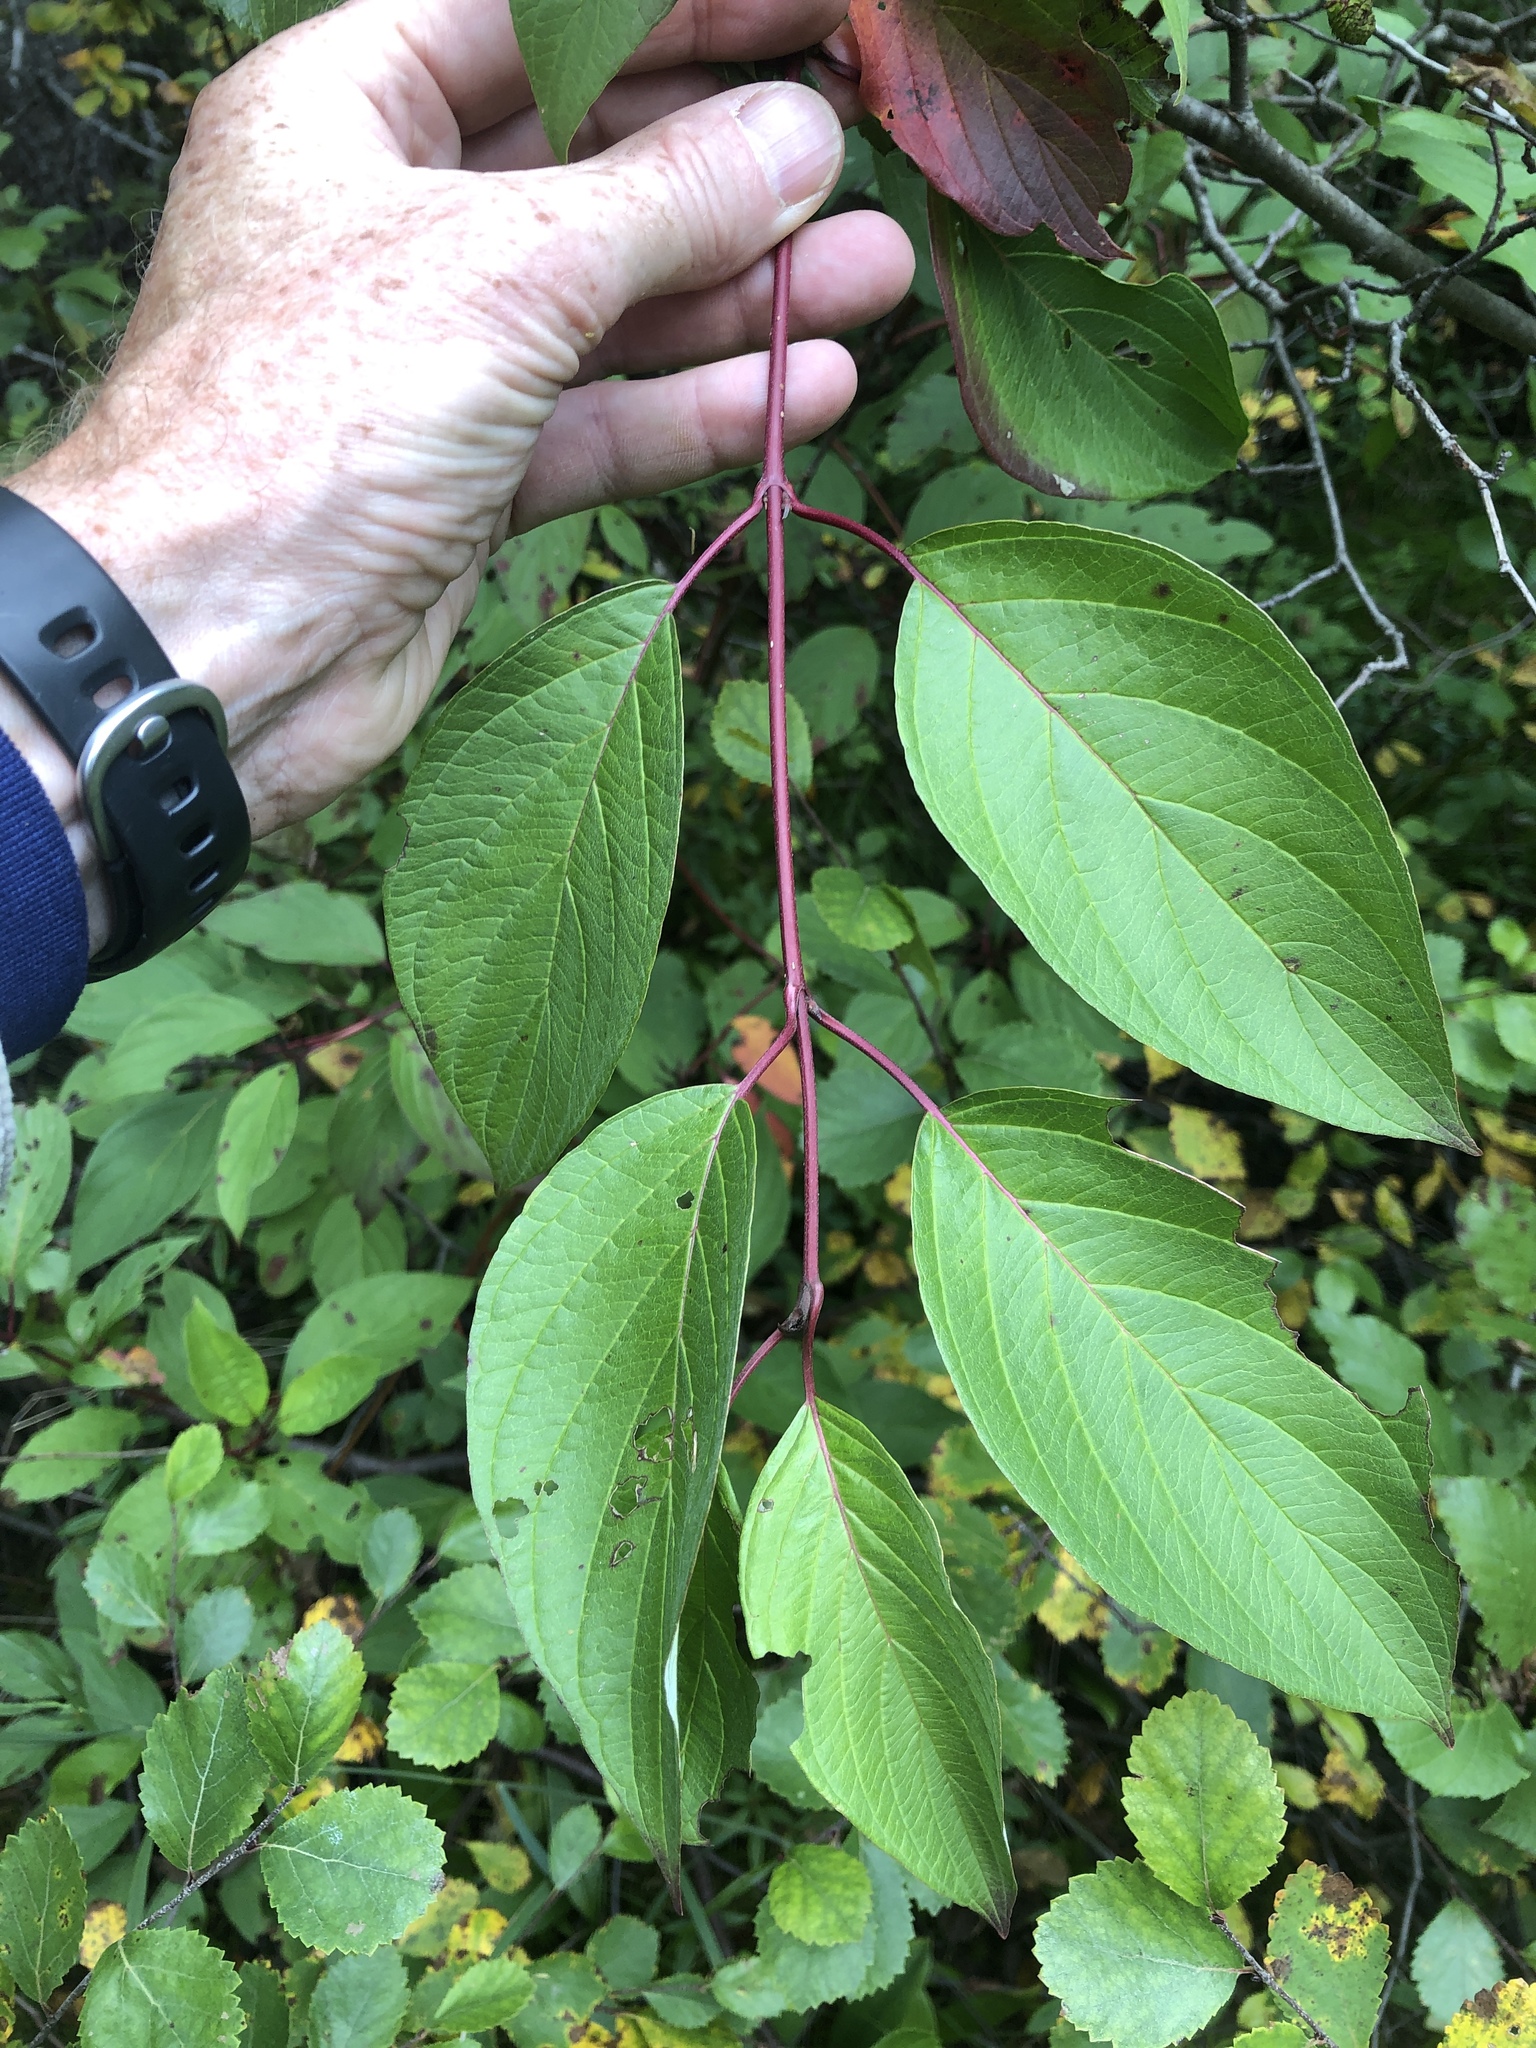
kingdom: Plantae
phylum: Tracheophyta
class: Magnoliopsida
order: Cornales
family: Cornaceae
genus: Cornus
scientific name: Cornus sericea
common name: Red-osier dogwood
